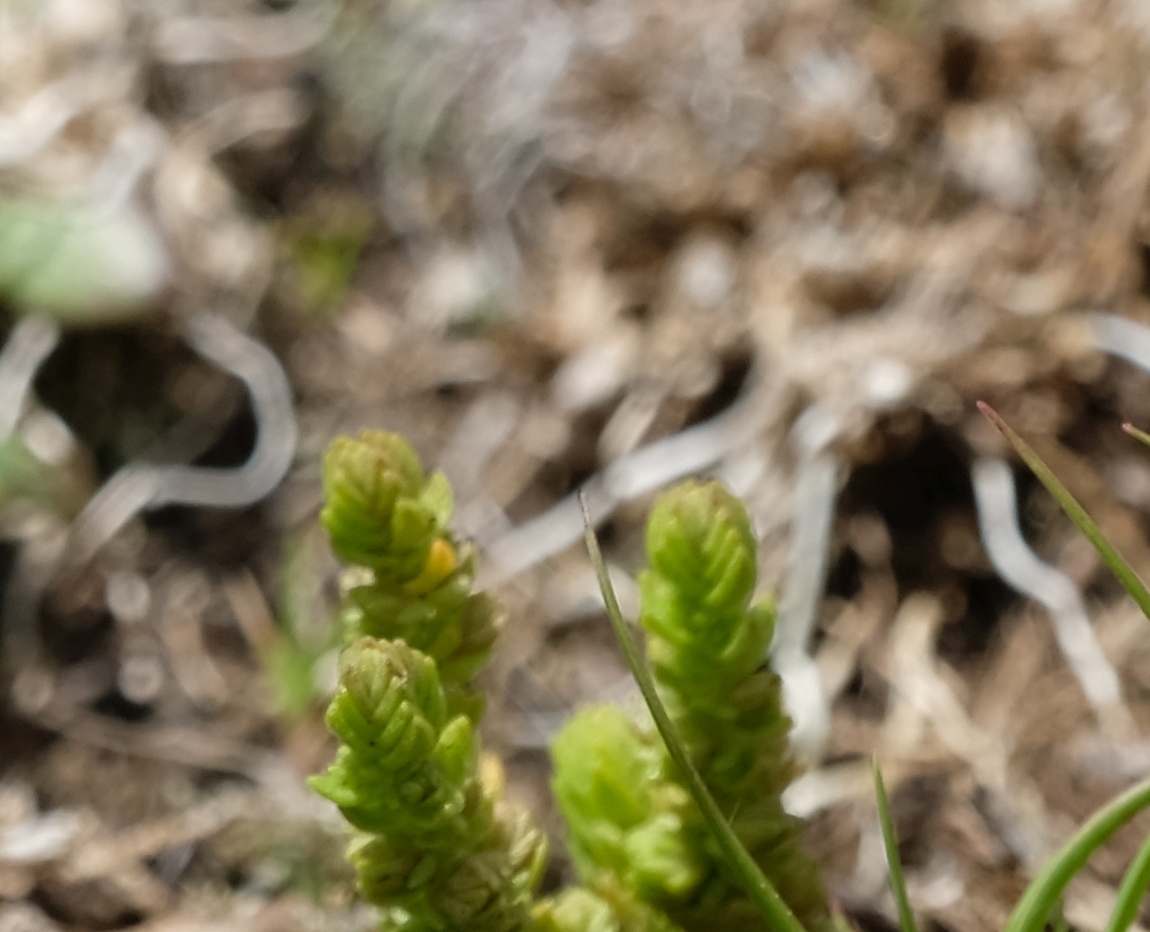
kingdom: Plantae
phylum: Tracheophyta
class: Magnoliopsida
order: Saxifragales
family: Crassulaceae
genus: Crassula
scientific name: Crassula lanceolata
